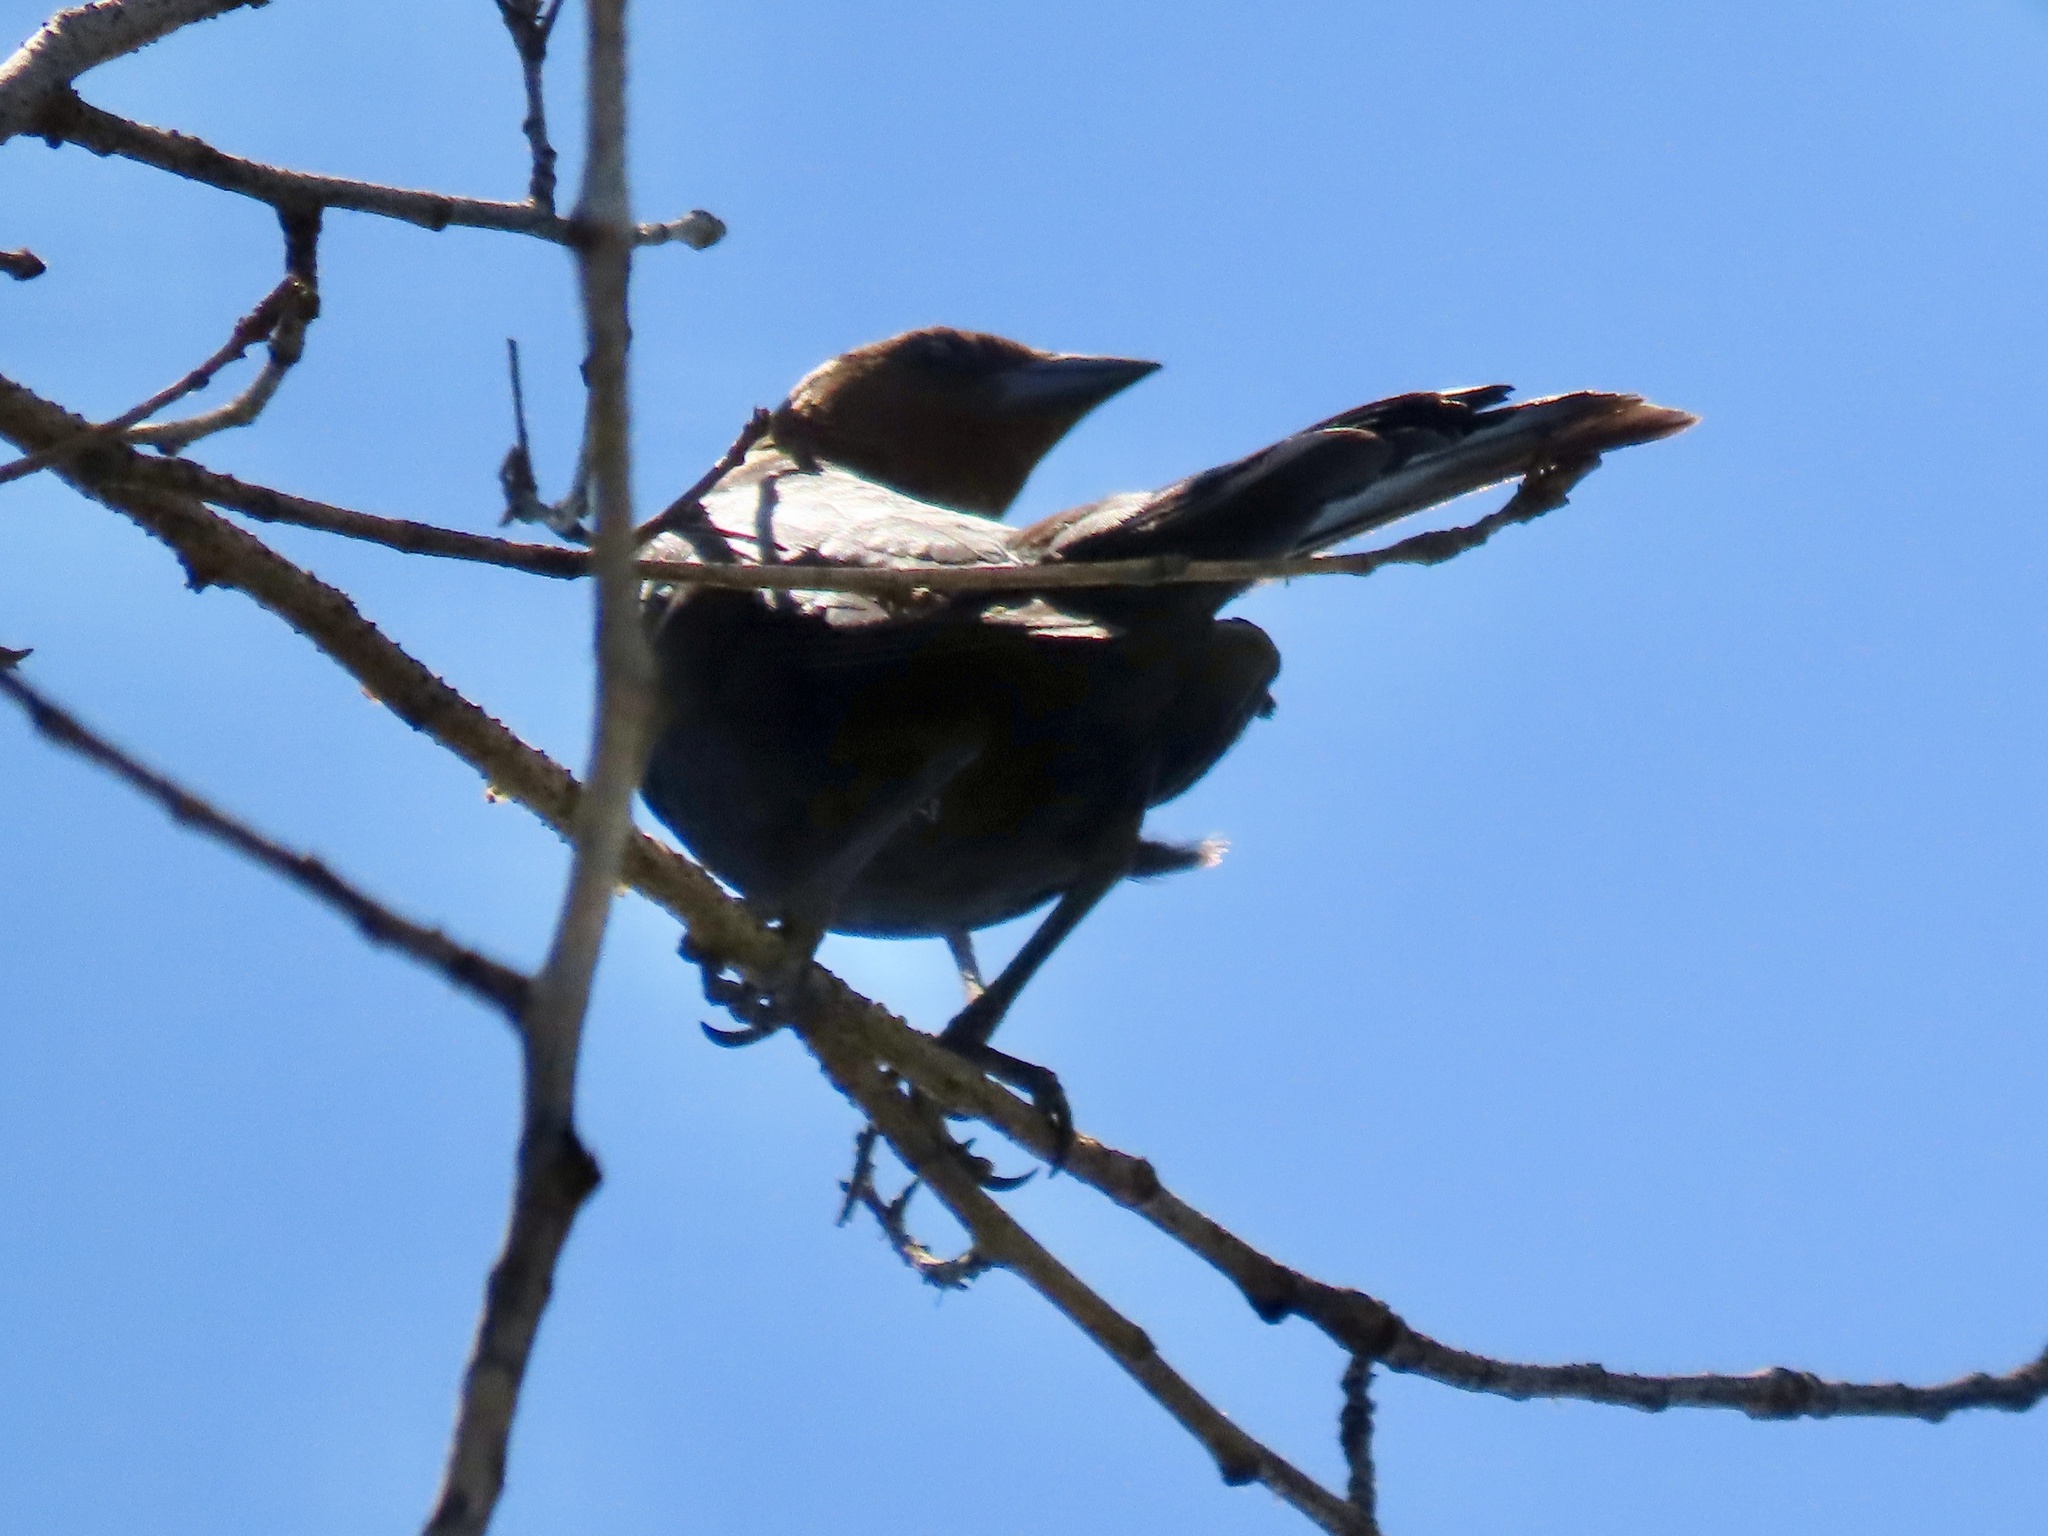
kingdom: Animalia
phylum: Chordata
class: Aves
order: Passeriformes
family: Icteridae
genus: Molothrus
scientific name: Molothrus ater
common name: Brown-headed cowbird
